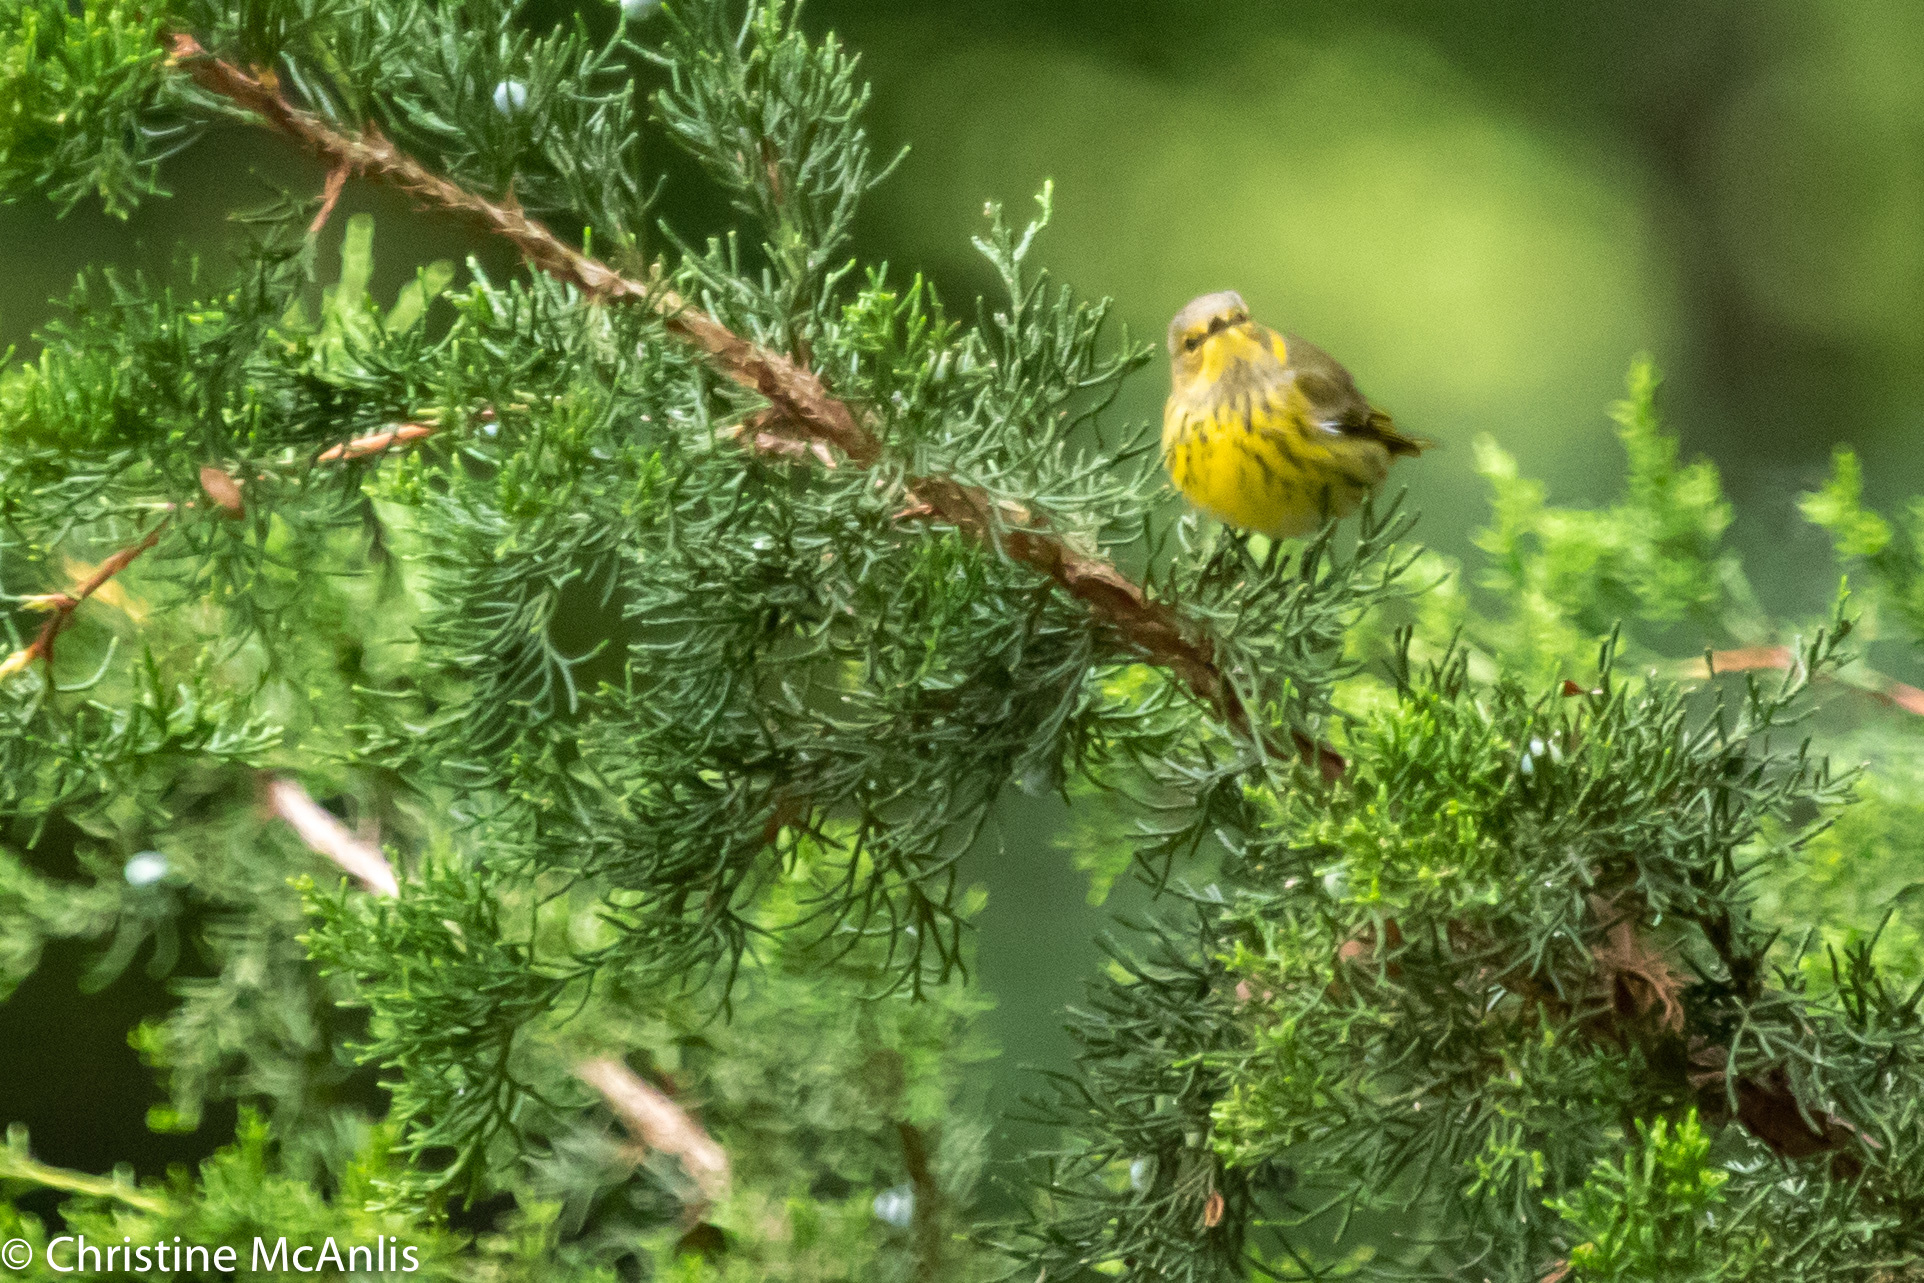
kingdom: Animalia
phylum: Chordata
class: Aves
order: Passeriformes
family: Parulidae
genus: Setophaga
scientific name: Setophaga tigrina
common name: Cape may warbler
